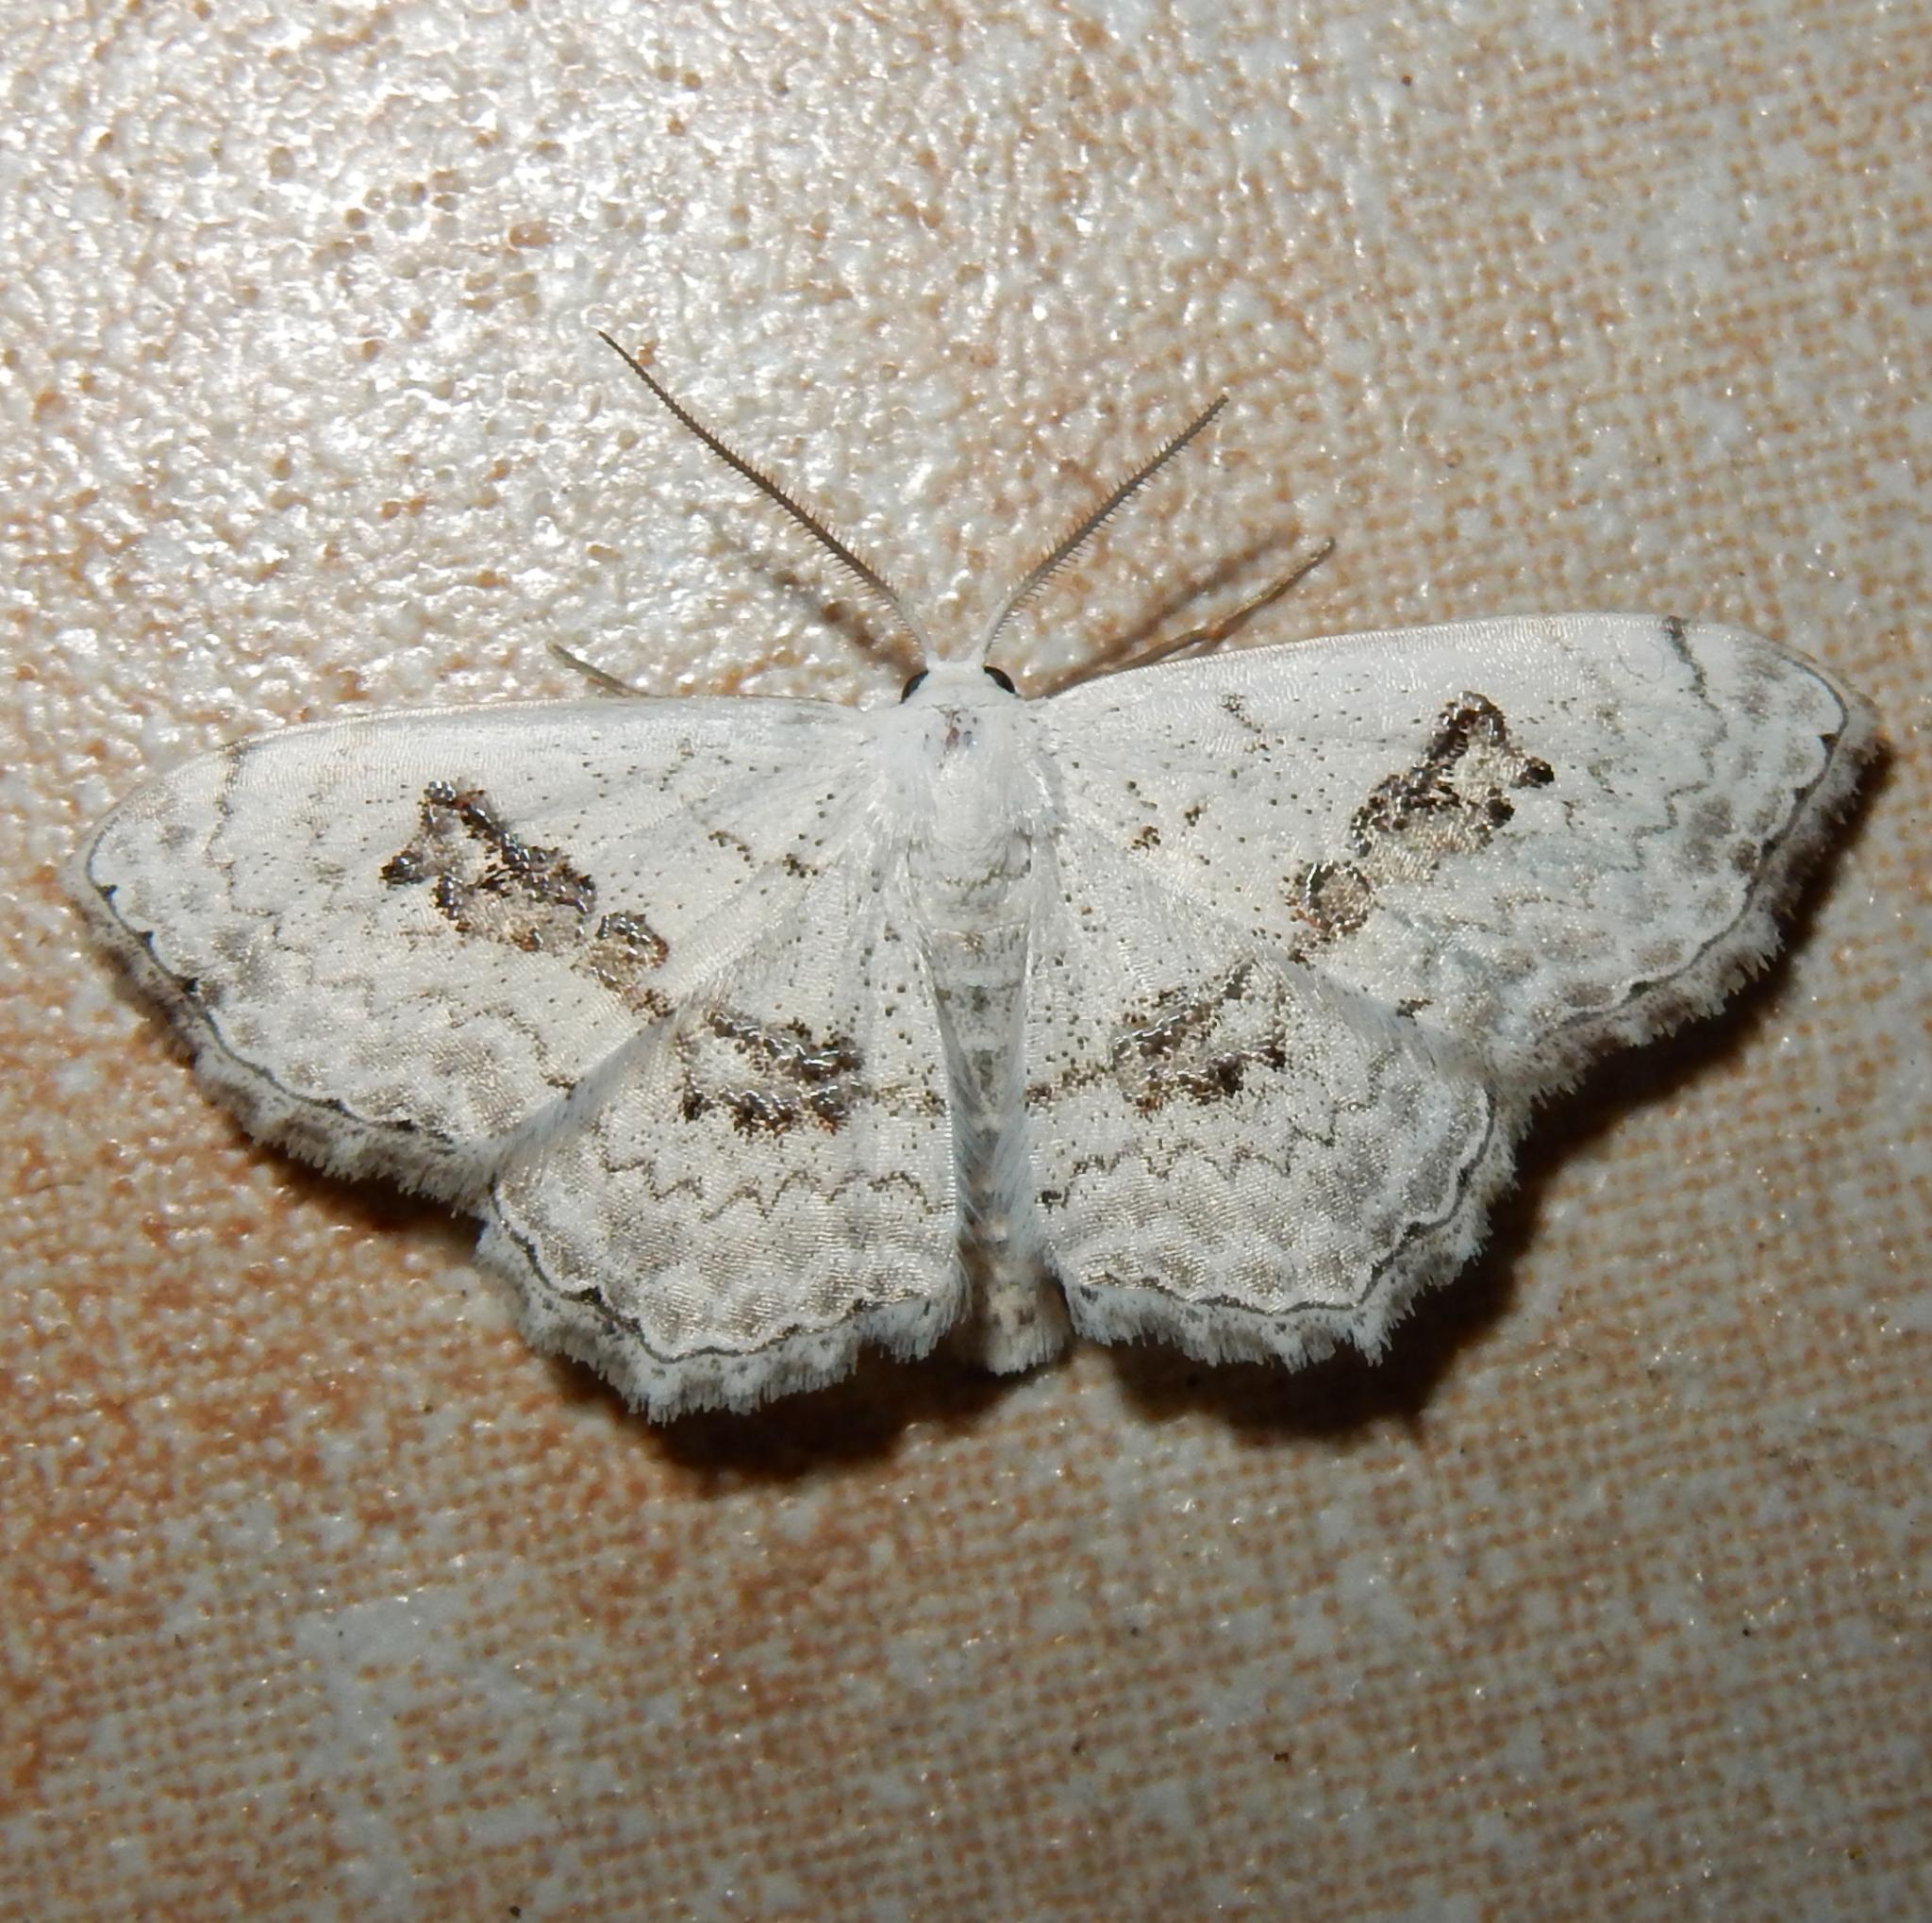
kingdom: Animalia
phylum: Arthropoda
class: Insecta
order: Lepidoptera
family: Geometridae
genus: Problepsis
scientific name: Problepsis
